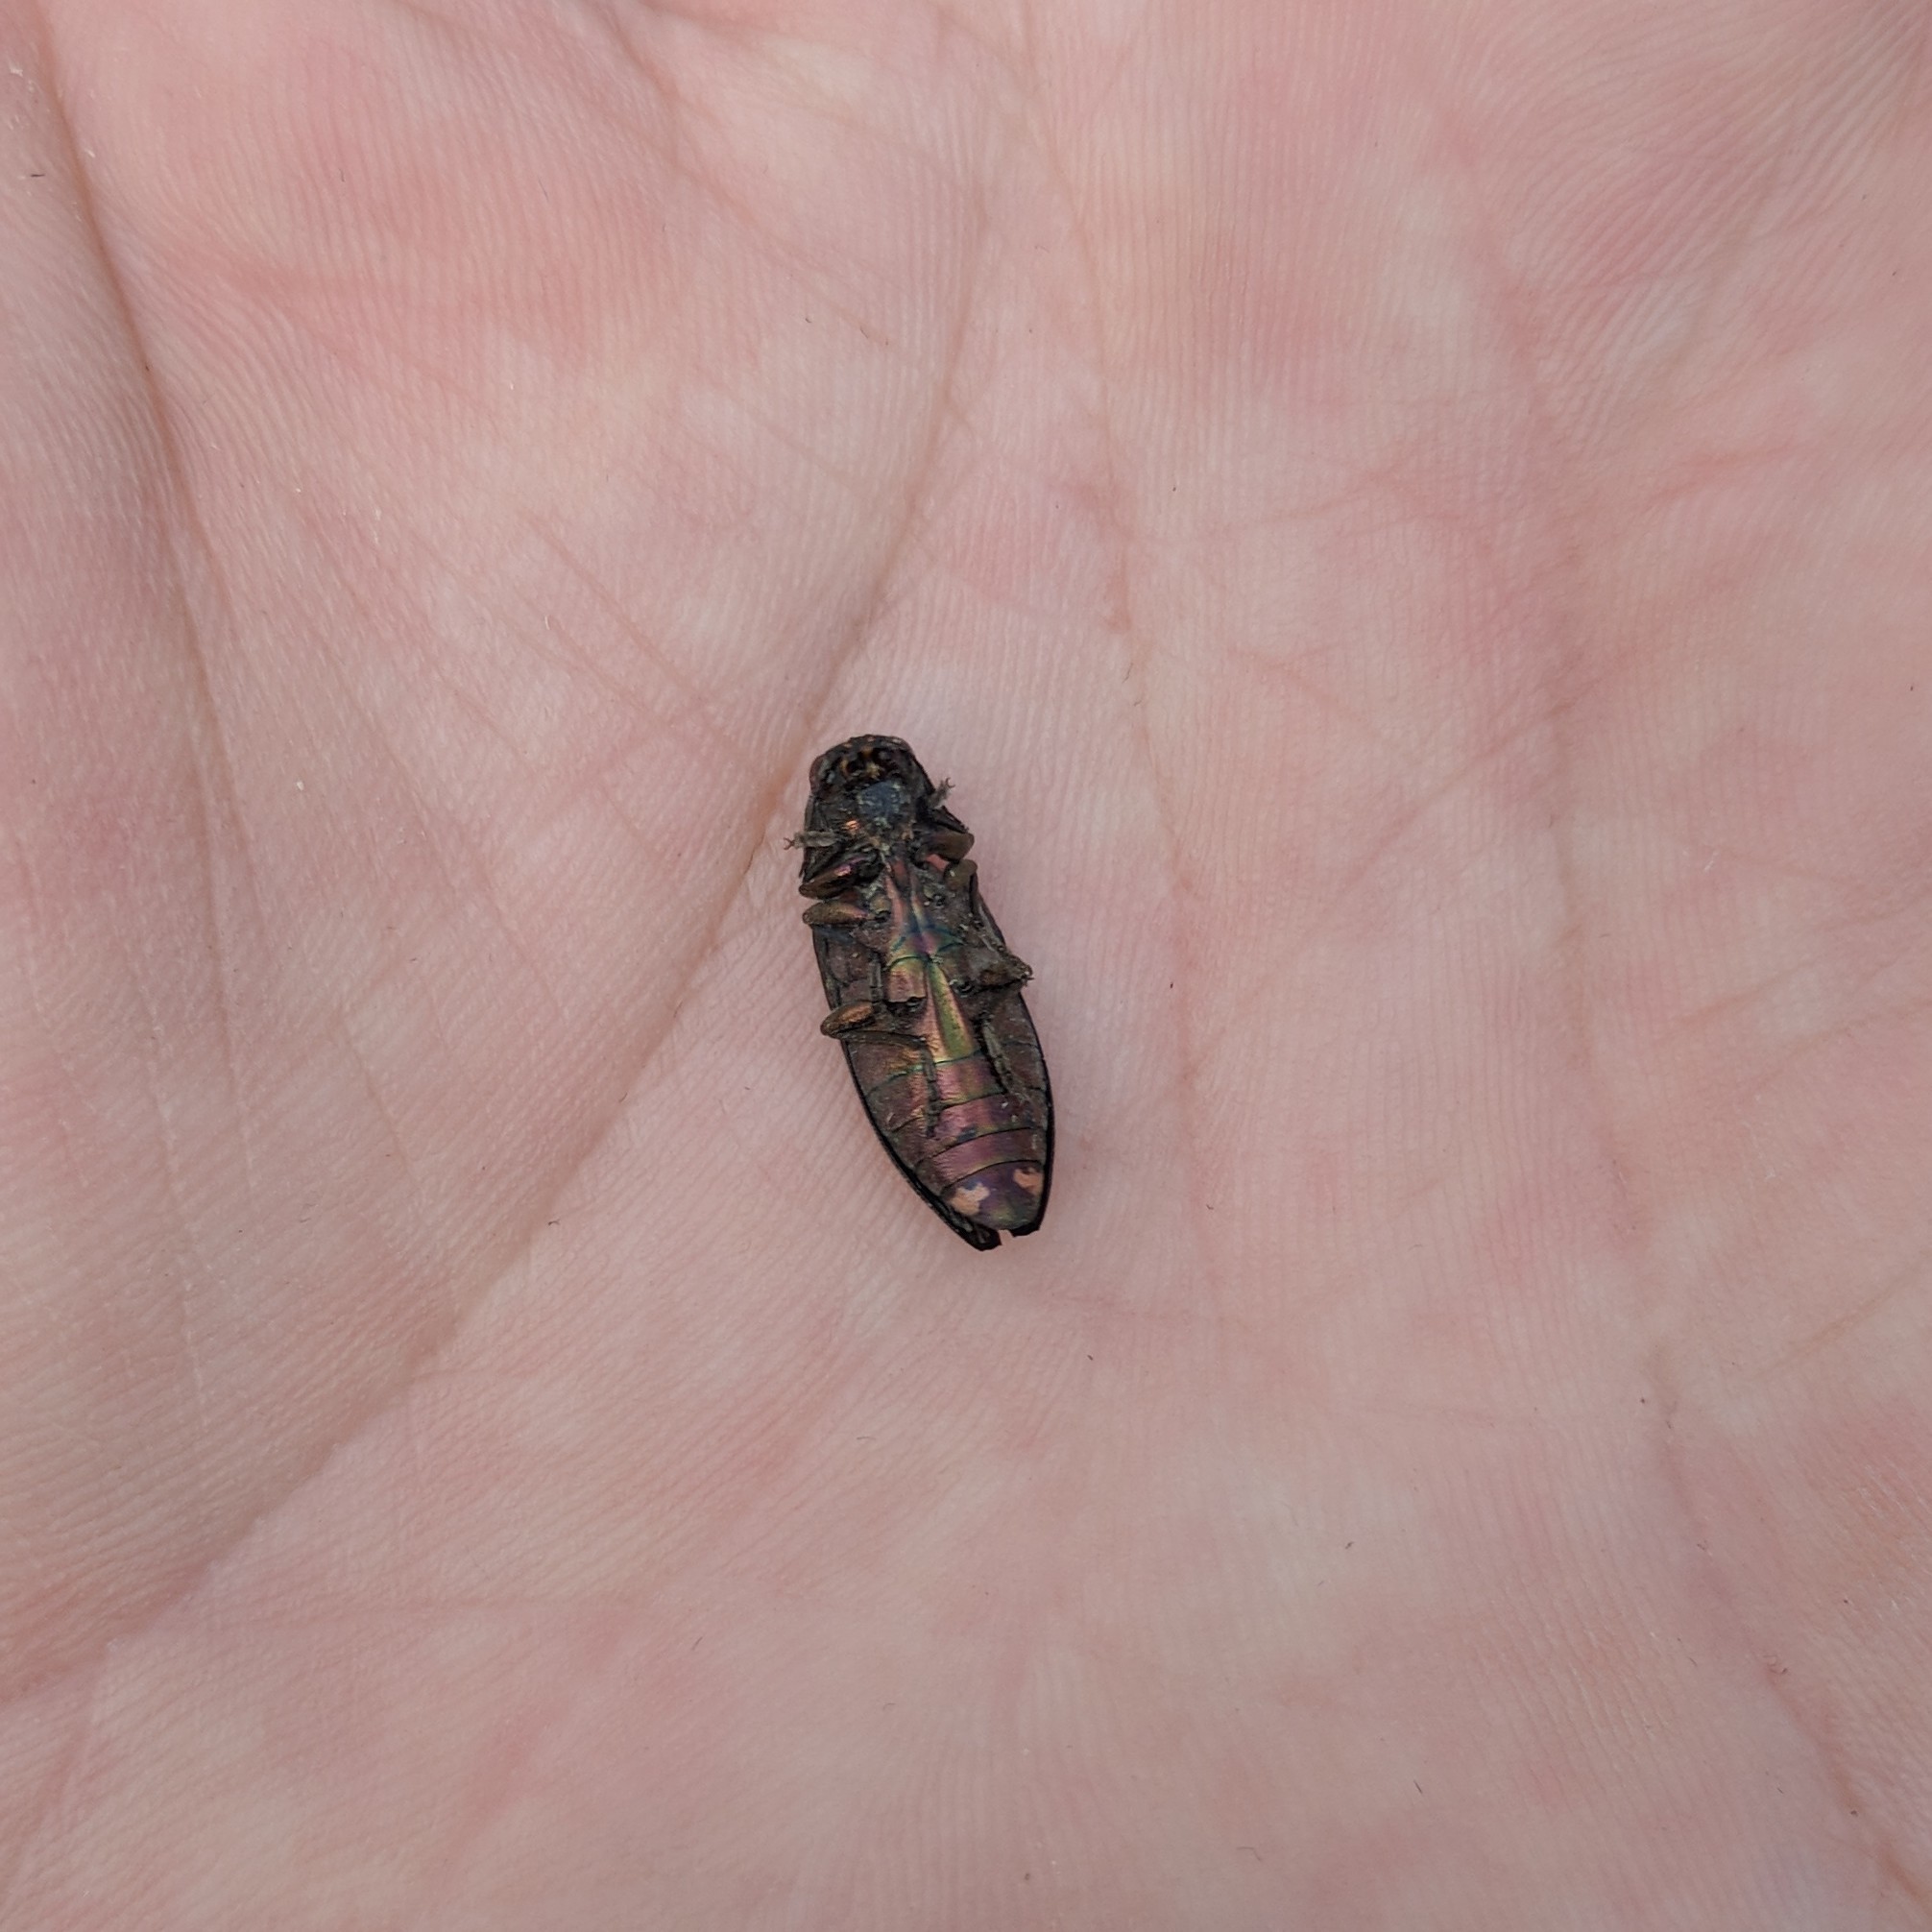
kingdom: Animalia
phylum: Arthropoda
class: Insecta
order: Coleoptera
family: Buprestidae
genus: Buprestis
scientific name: Buprestis haemorrhoidalis
